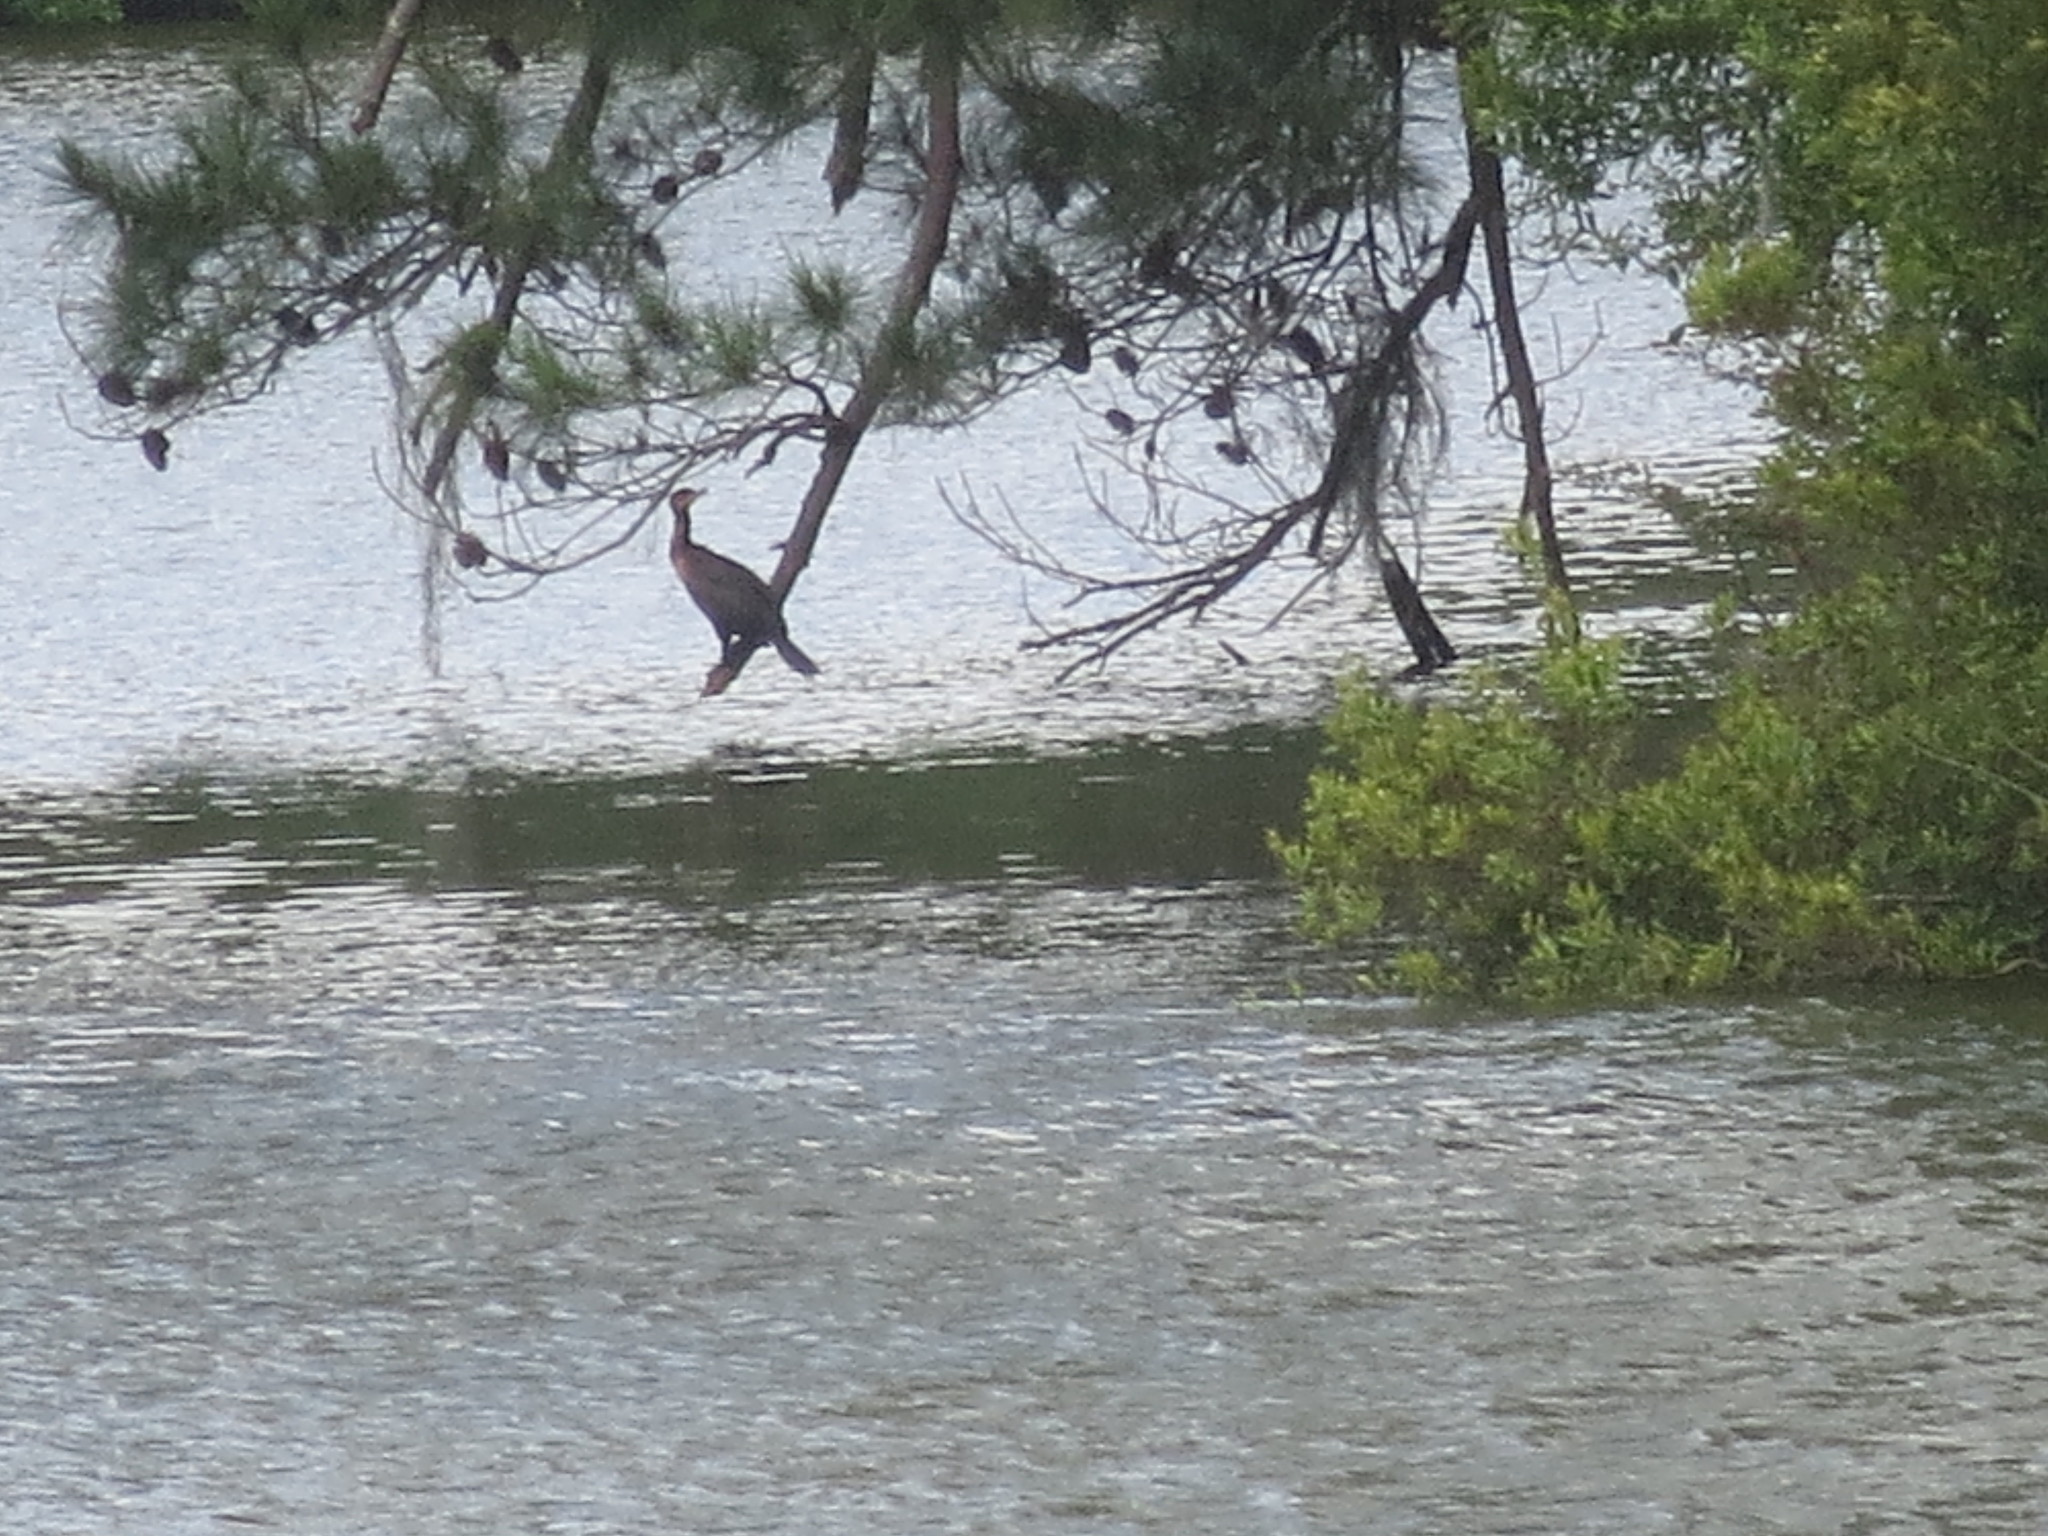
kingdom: Animalia
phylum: Chordata
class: Aves
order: Suliformes
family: Phalacrocoracidae
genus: Phalacrocorax
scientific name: Phalacrocorax auritus
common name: Double-crested cormorant
